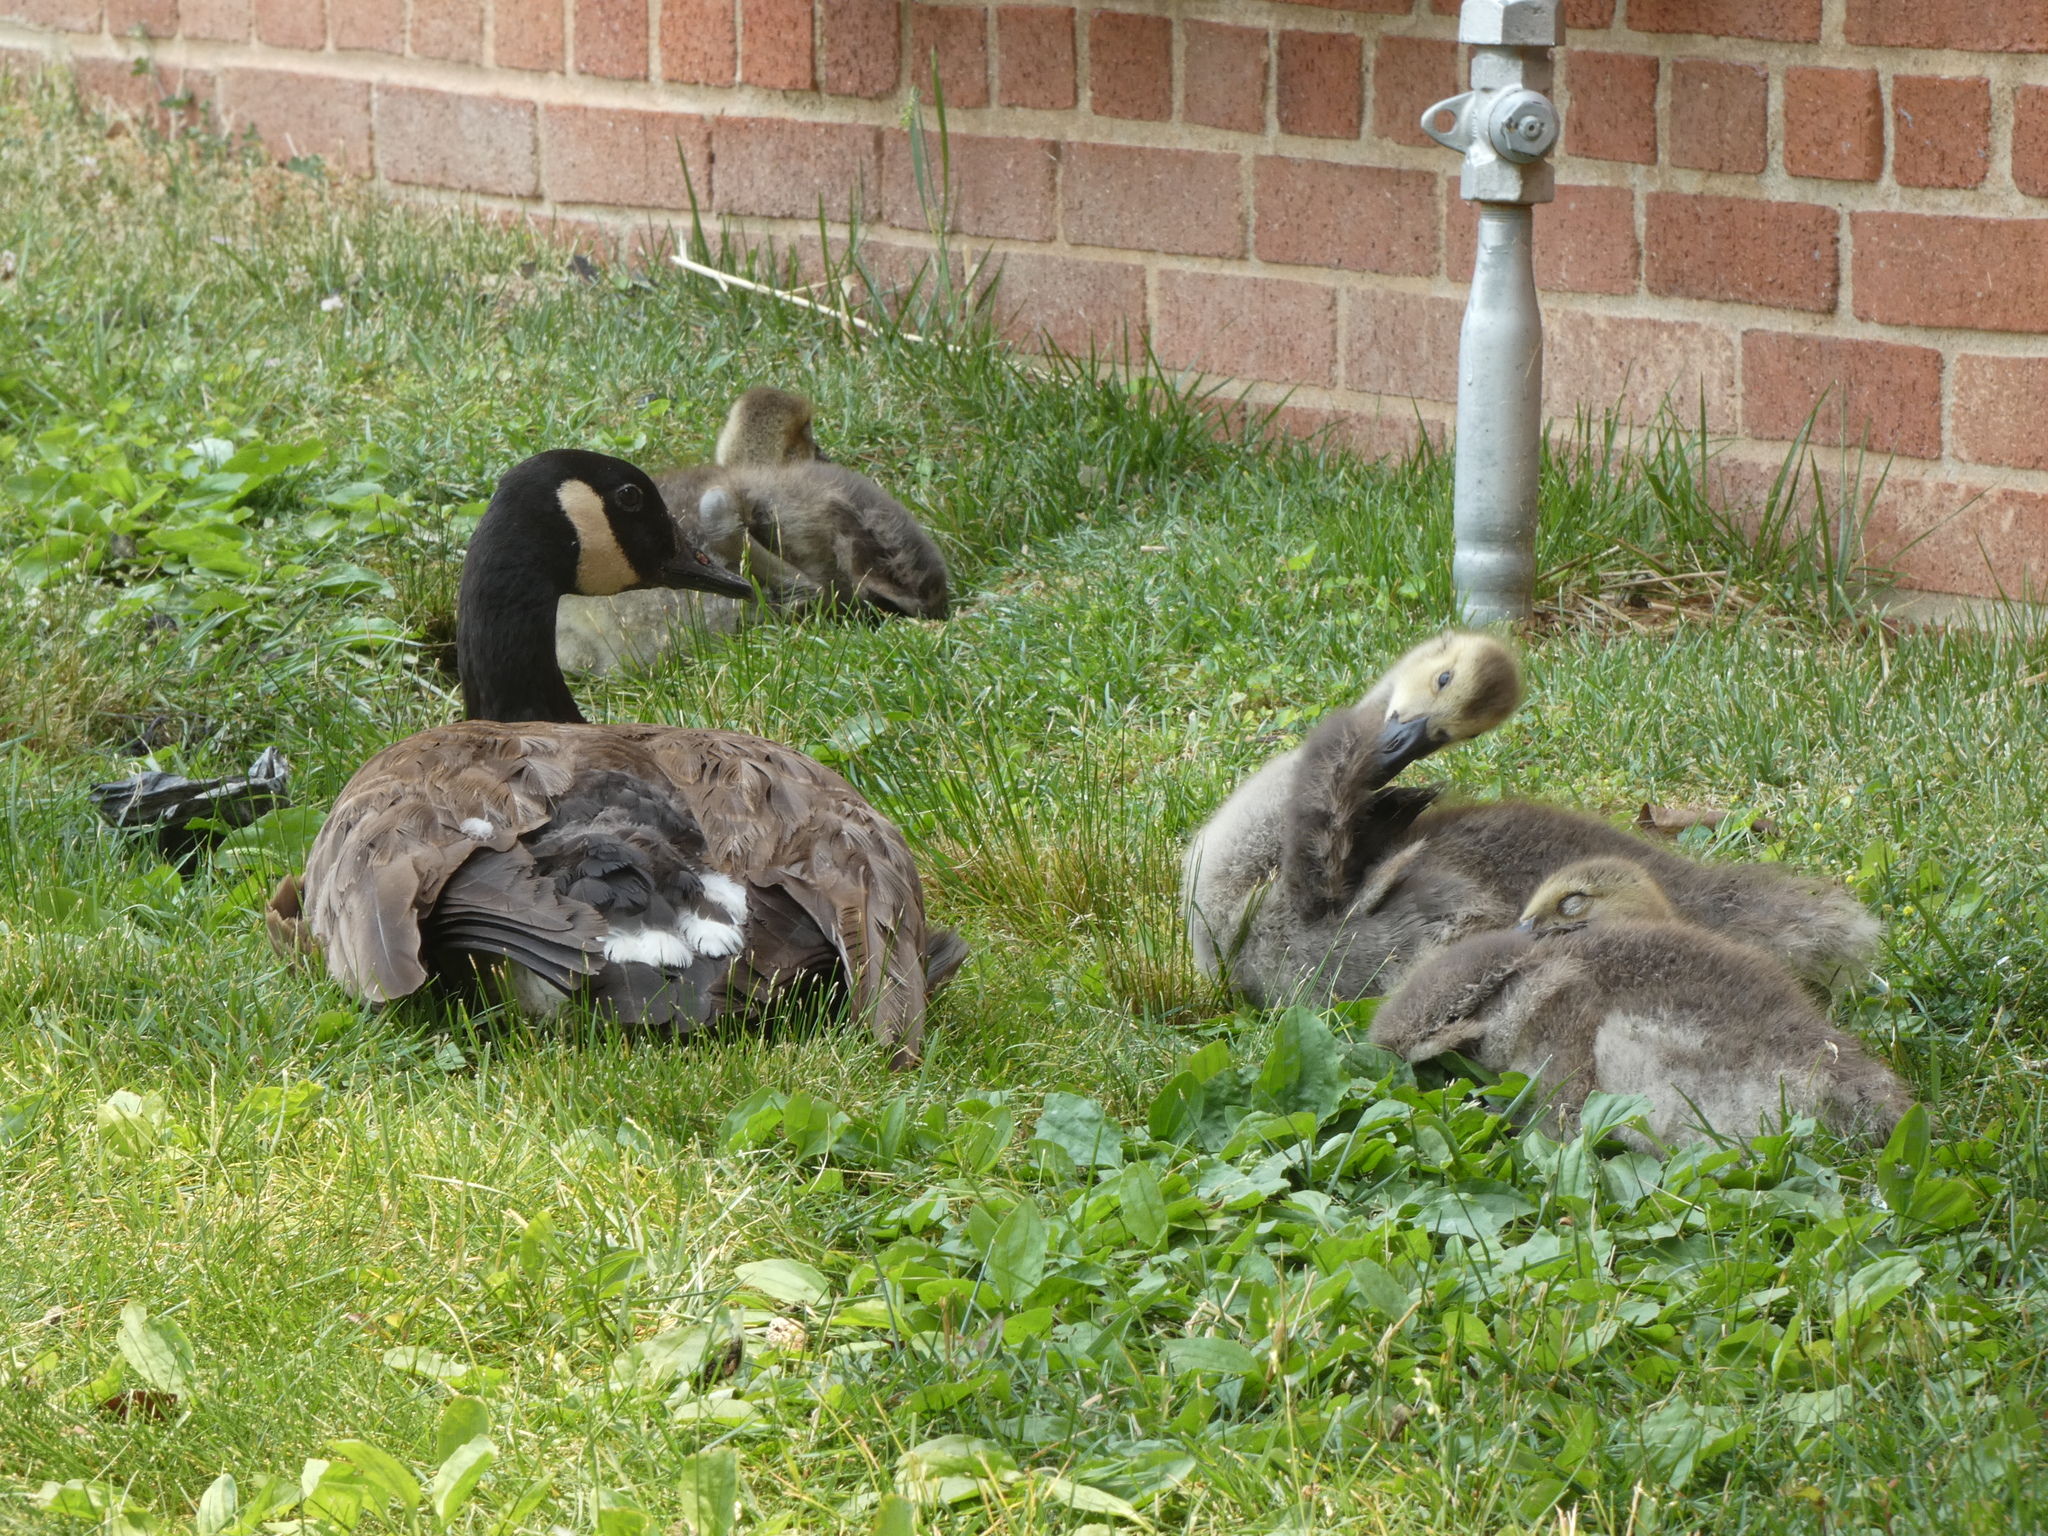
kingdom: Animalia
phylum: Chordata
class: Aves
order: Anseriformes
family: Anatidae
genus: Branta
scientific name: Branta canadensis
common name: Canada goose
